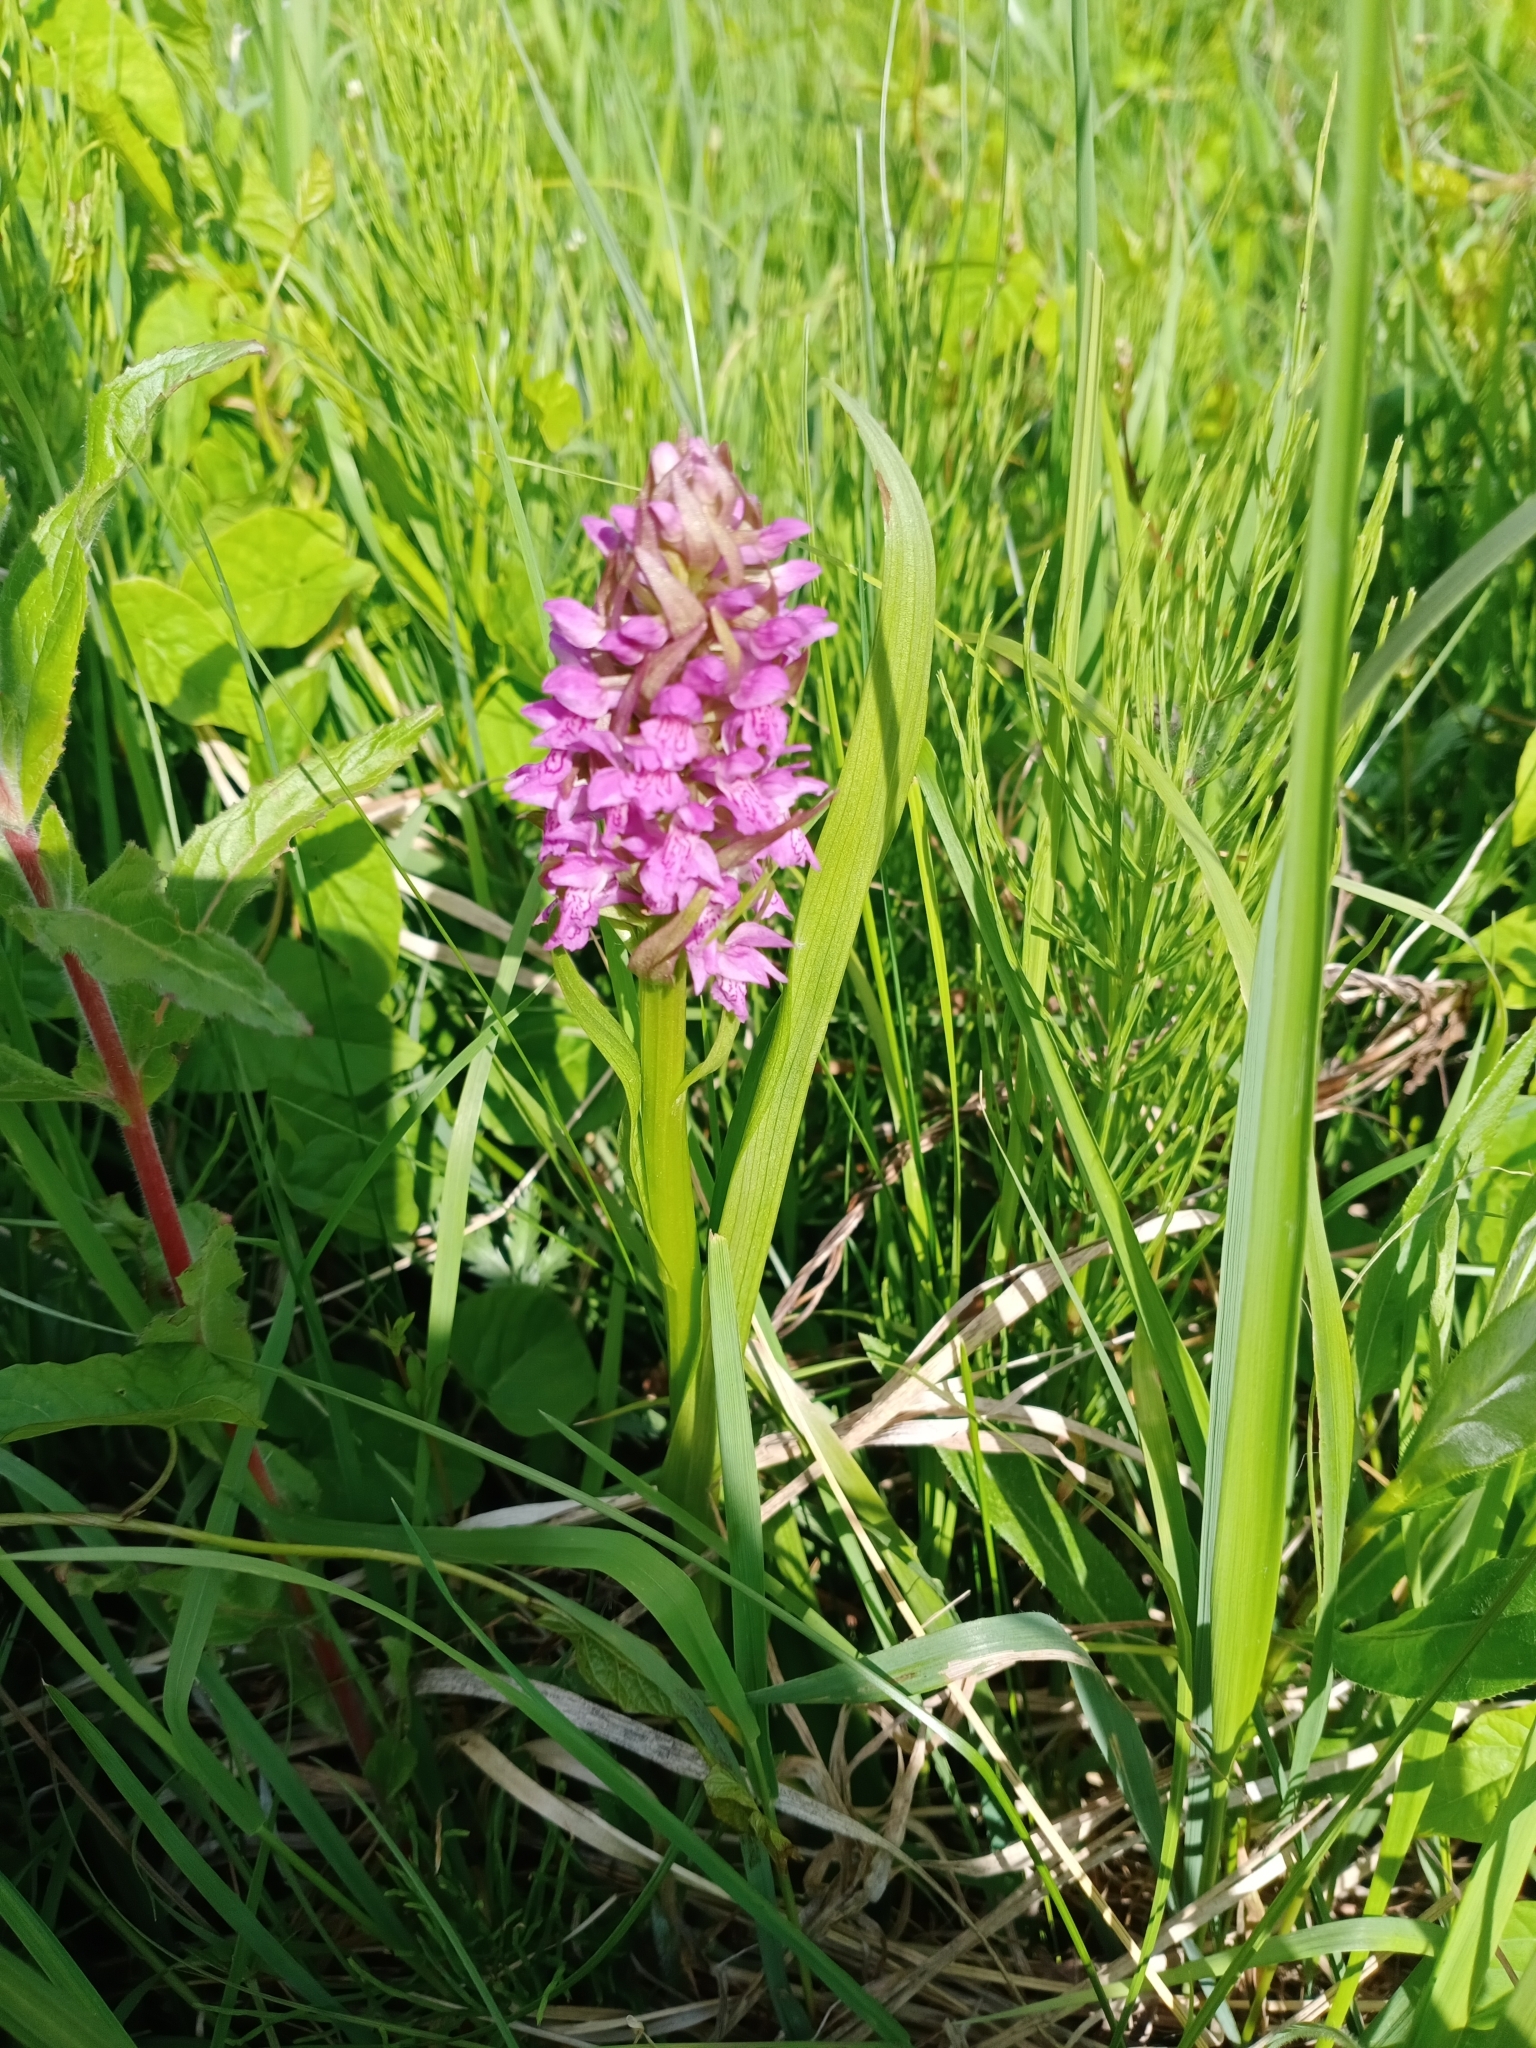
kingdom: Plantae
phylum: Tracheophyta
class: Liliopsida
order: Asparagales
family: Orchidaceae
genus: Dactylorhiza
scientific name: Dactylorhiza incarnata
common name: Early marsh-orchid
